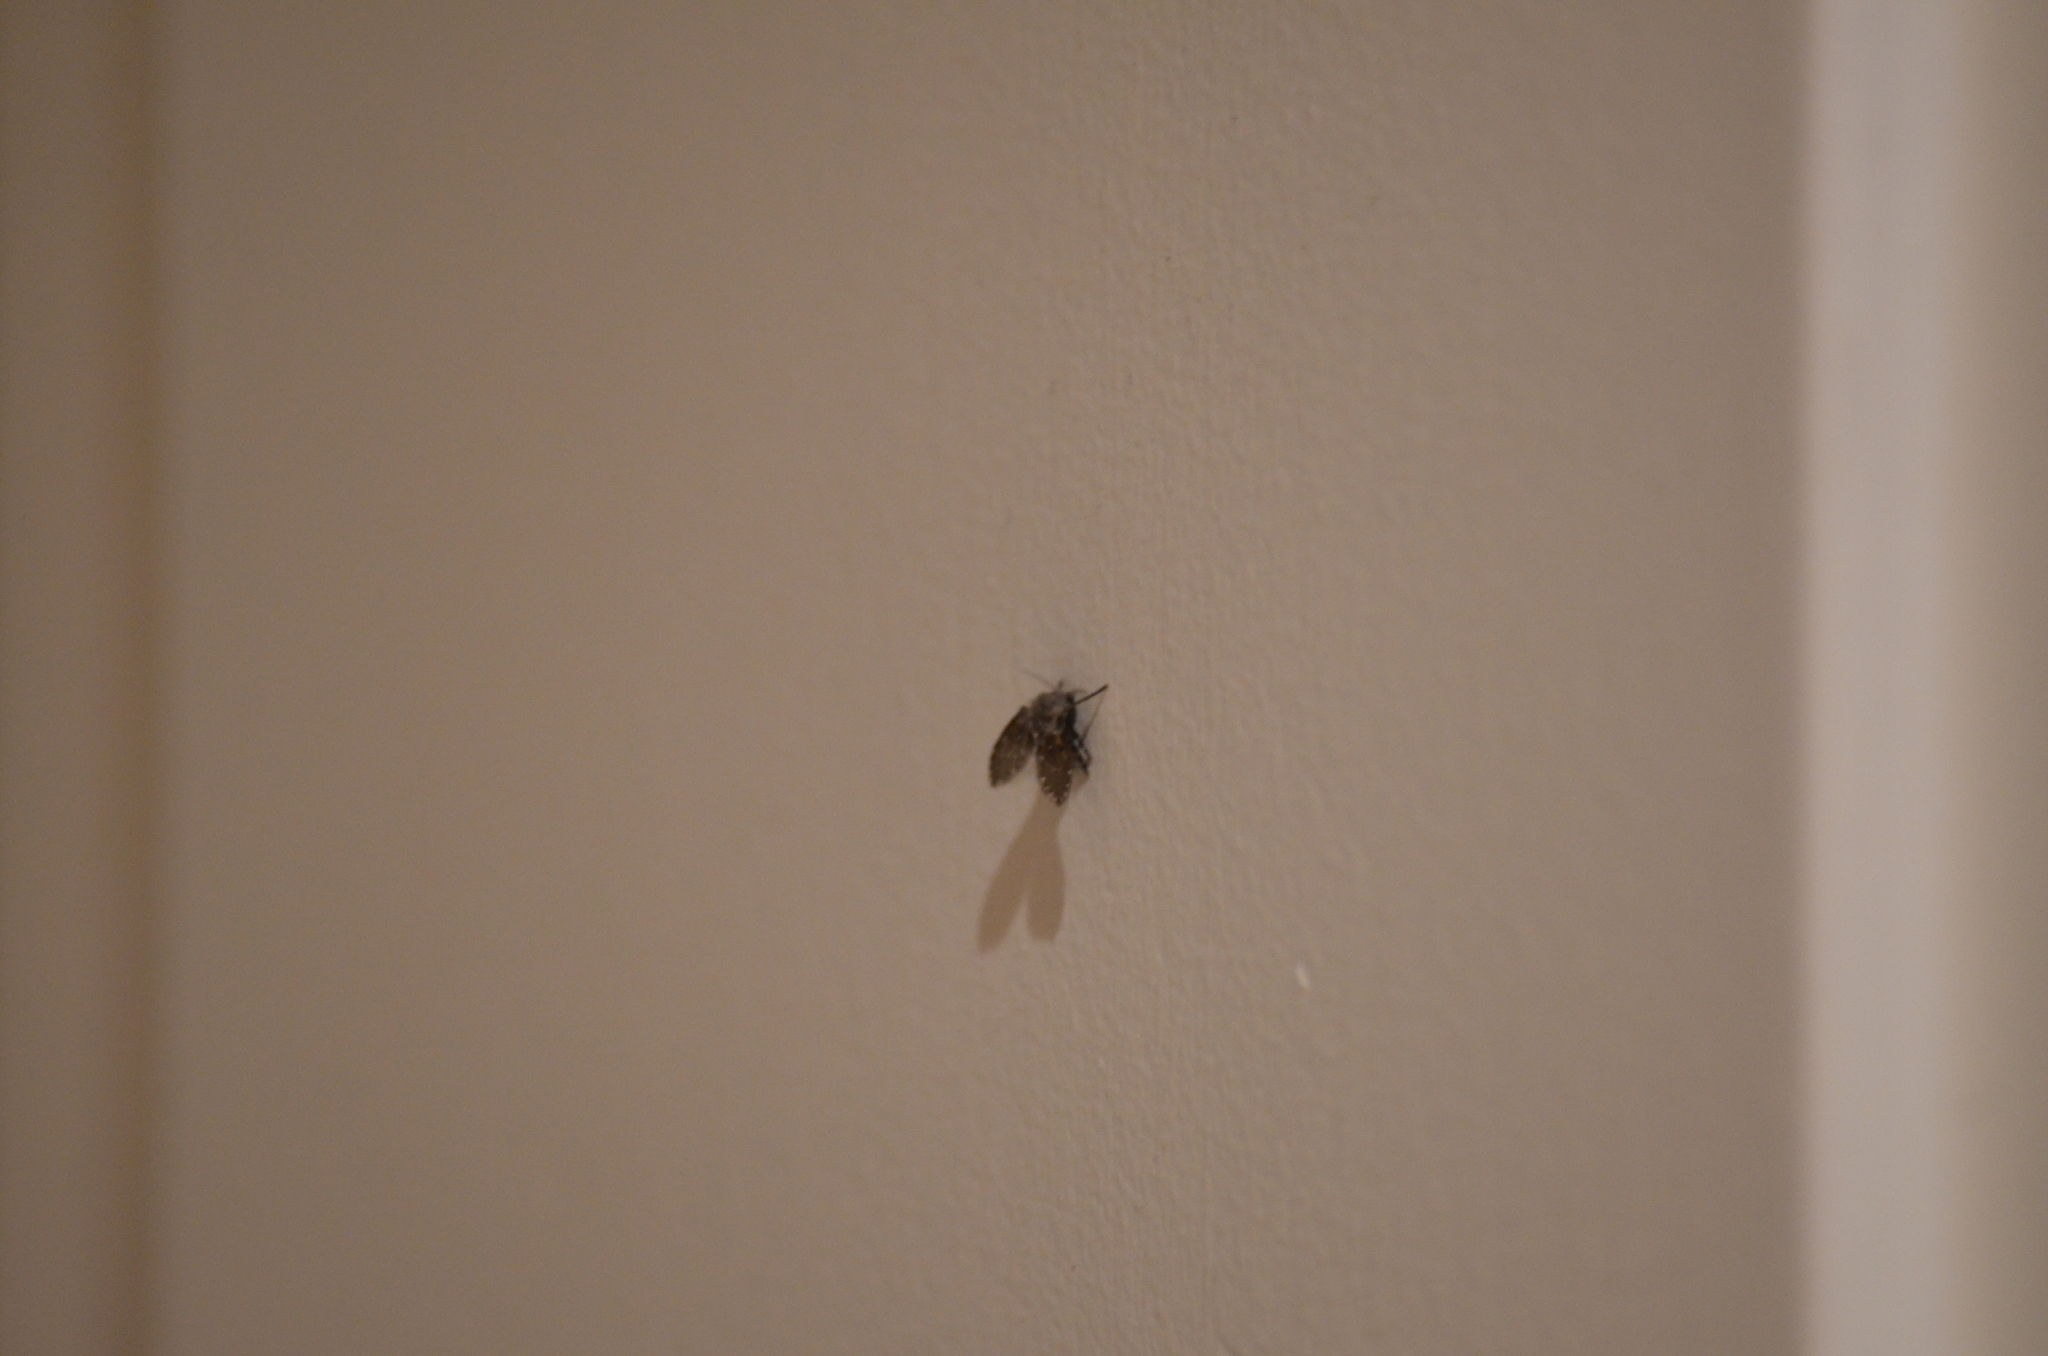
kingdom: Animalia
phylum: Arthropoda
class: Insecta
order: Diptera
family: Psychodidae
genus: Clogmia
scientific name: Clogmia albipunctatus
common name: White-spotted moth fly
